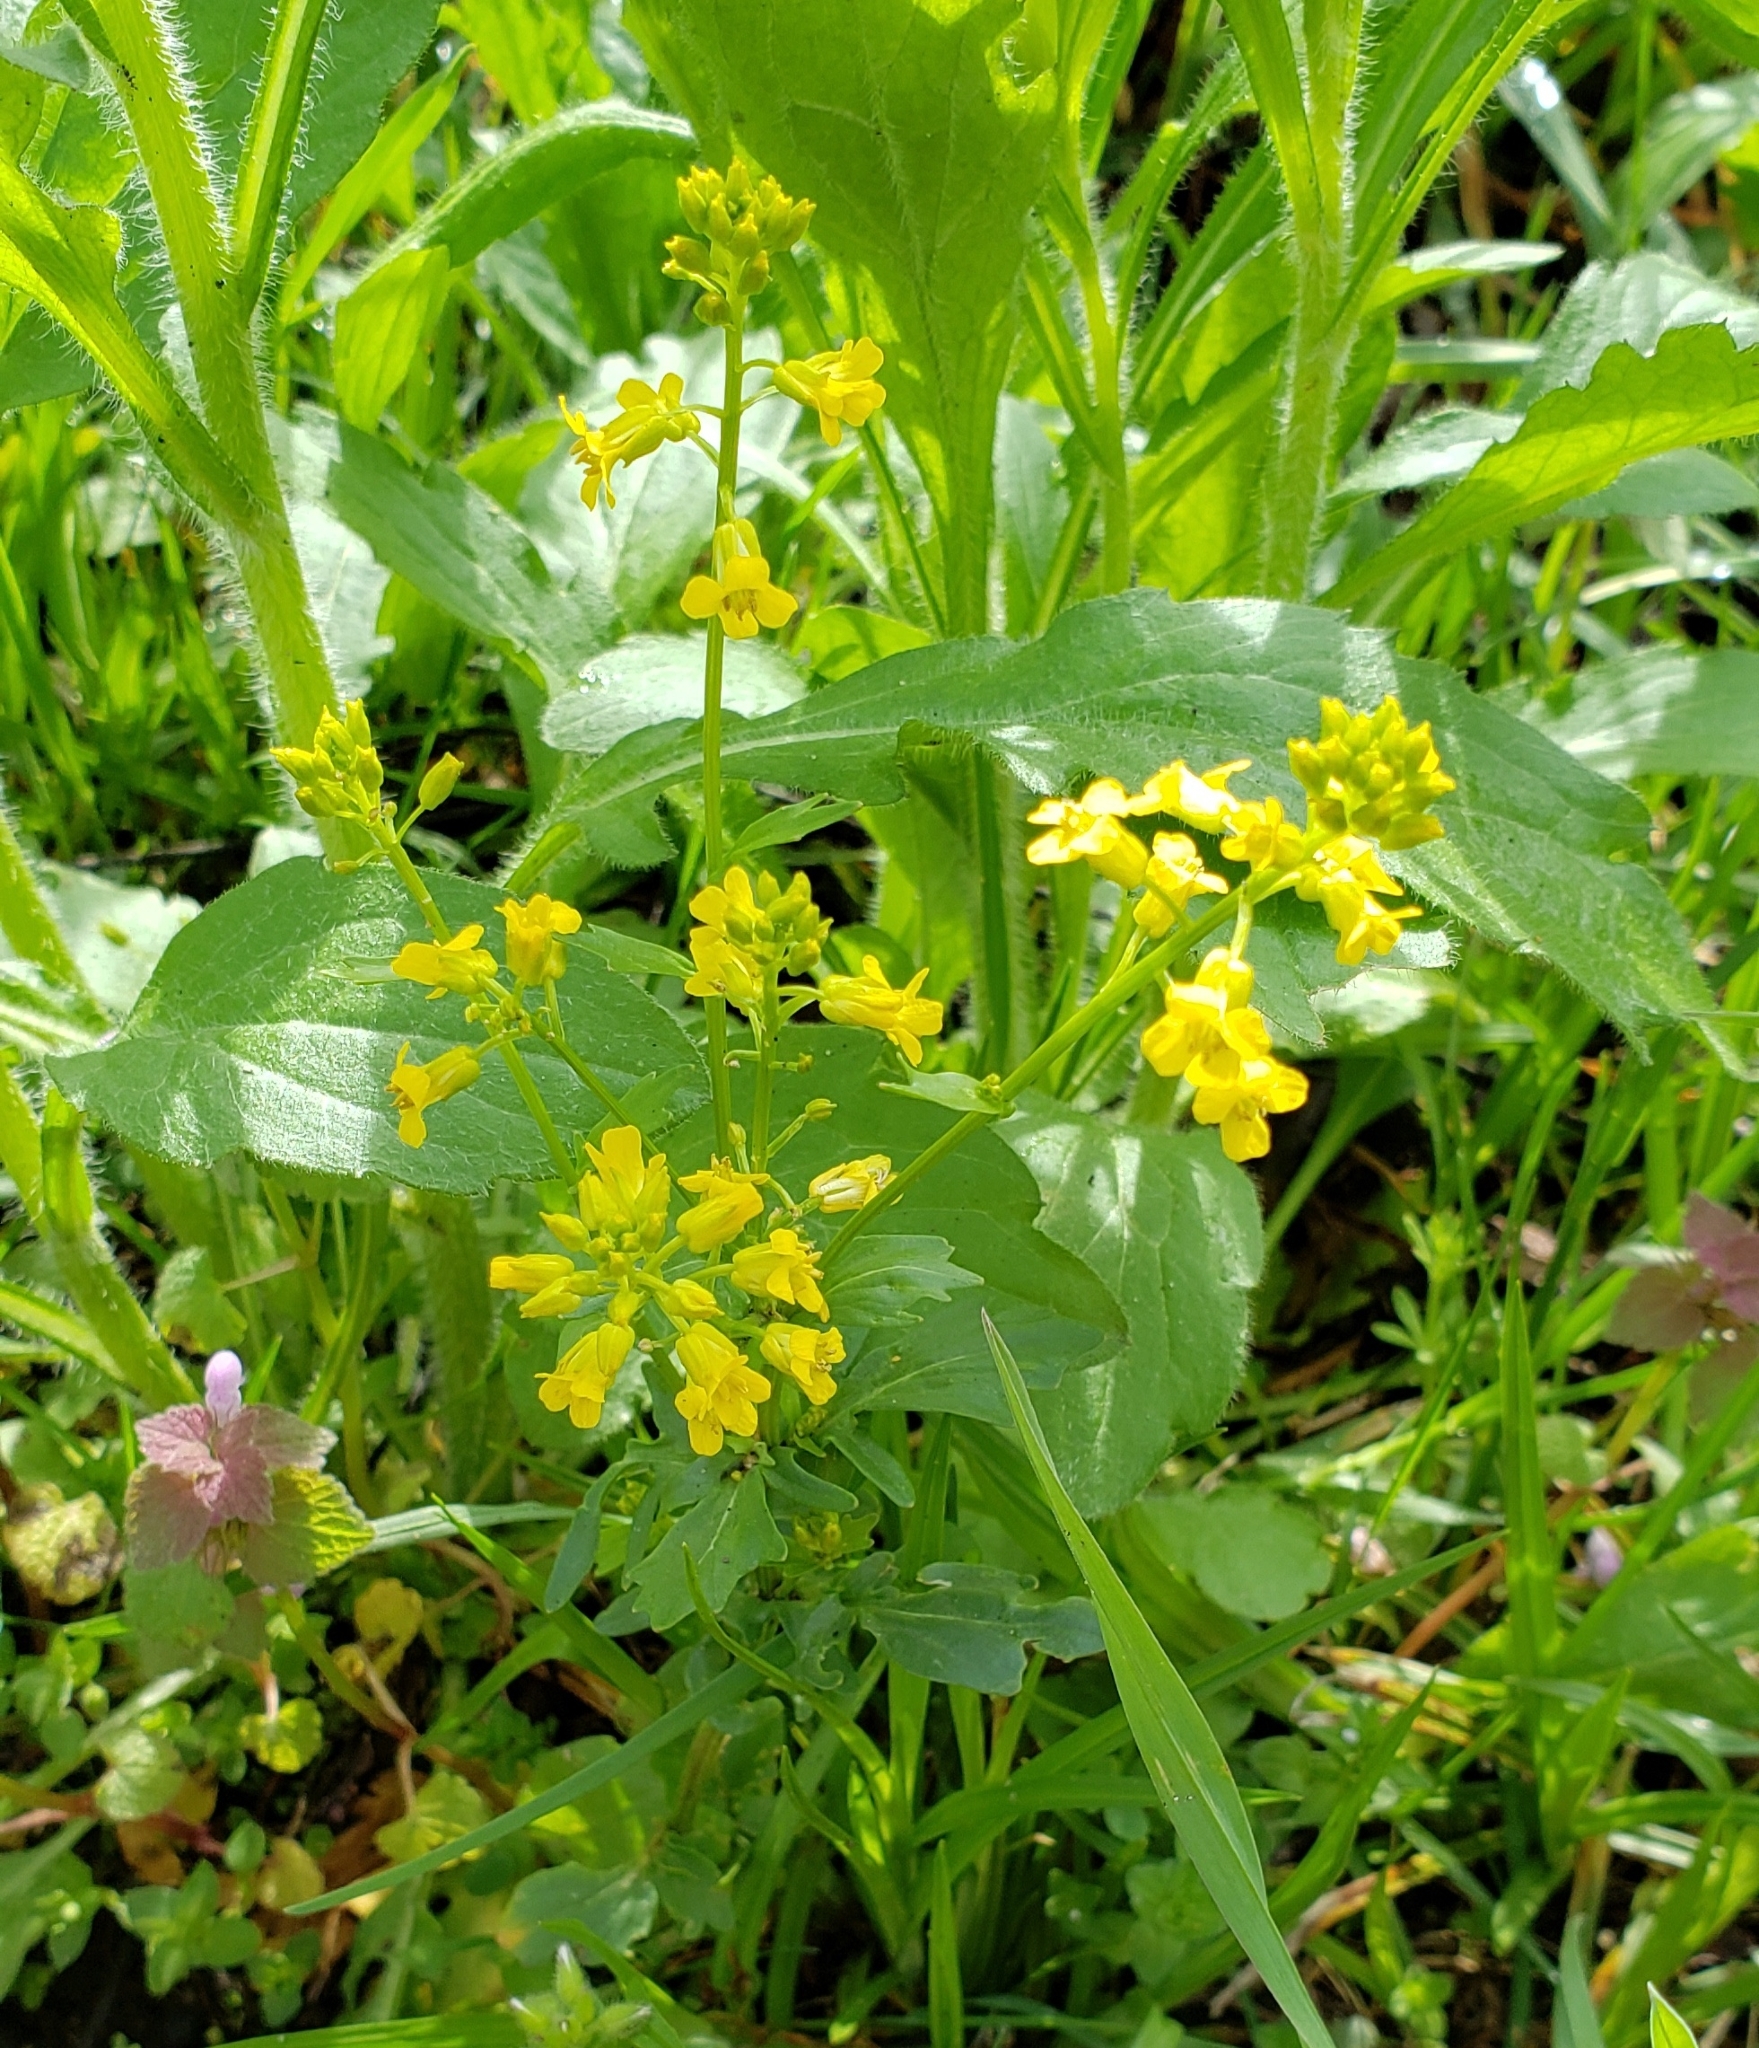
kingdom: Plantae
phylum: Tracheophyta
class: Magnoliopsida
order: Brassicales
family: Brassicaceae
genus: Barbarea
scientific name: Barbarea vulgaris
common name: Cressy-greens
